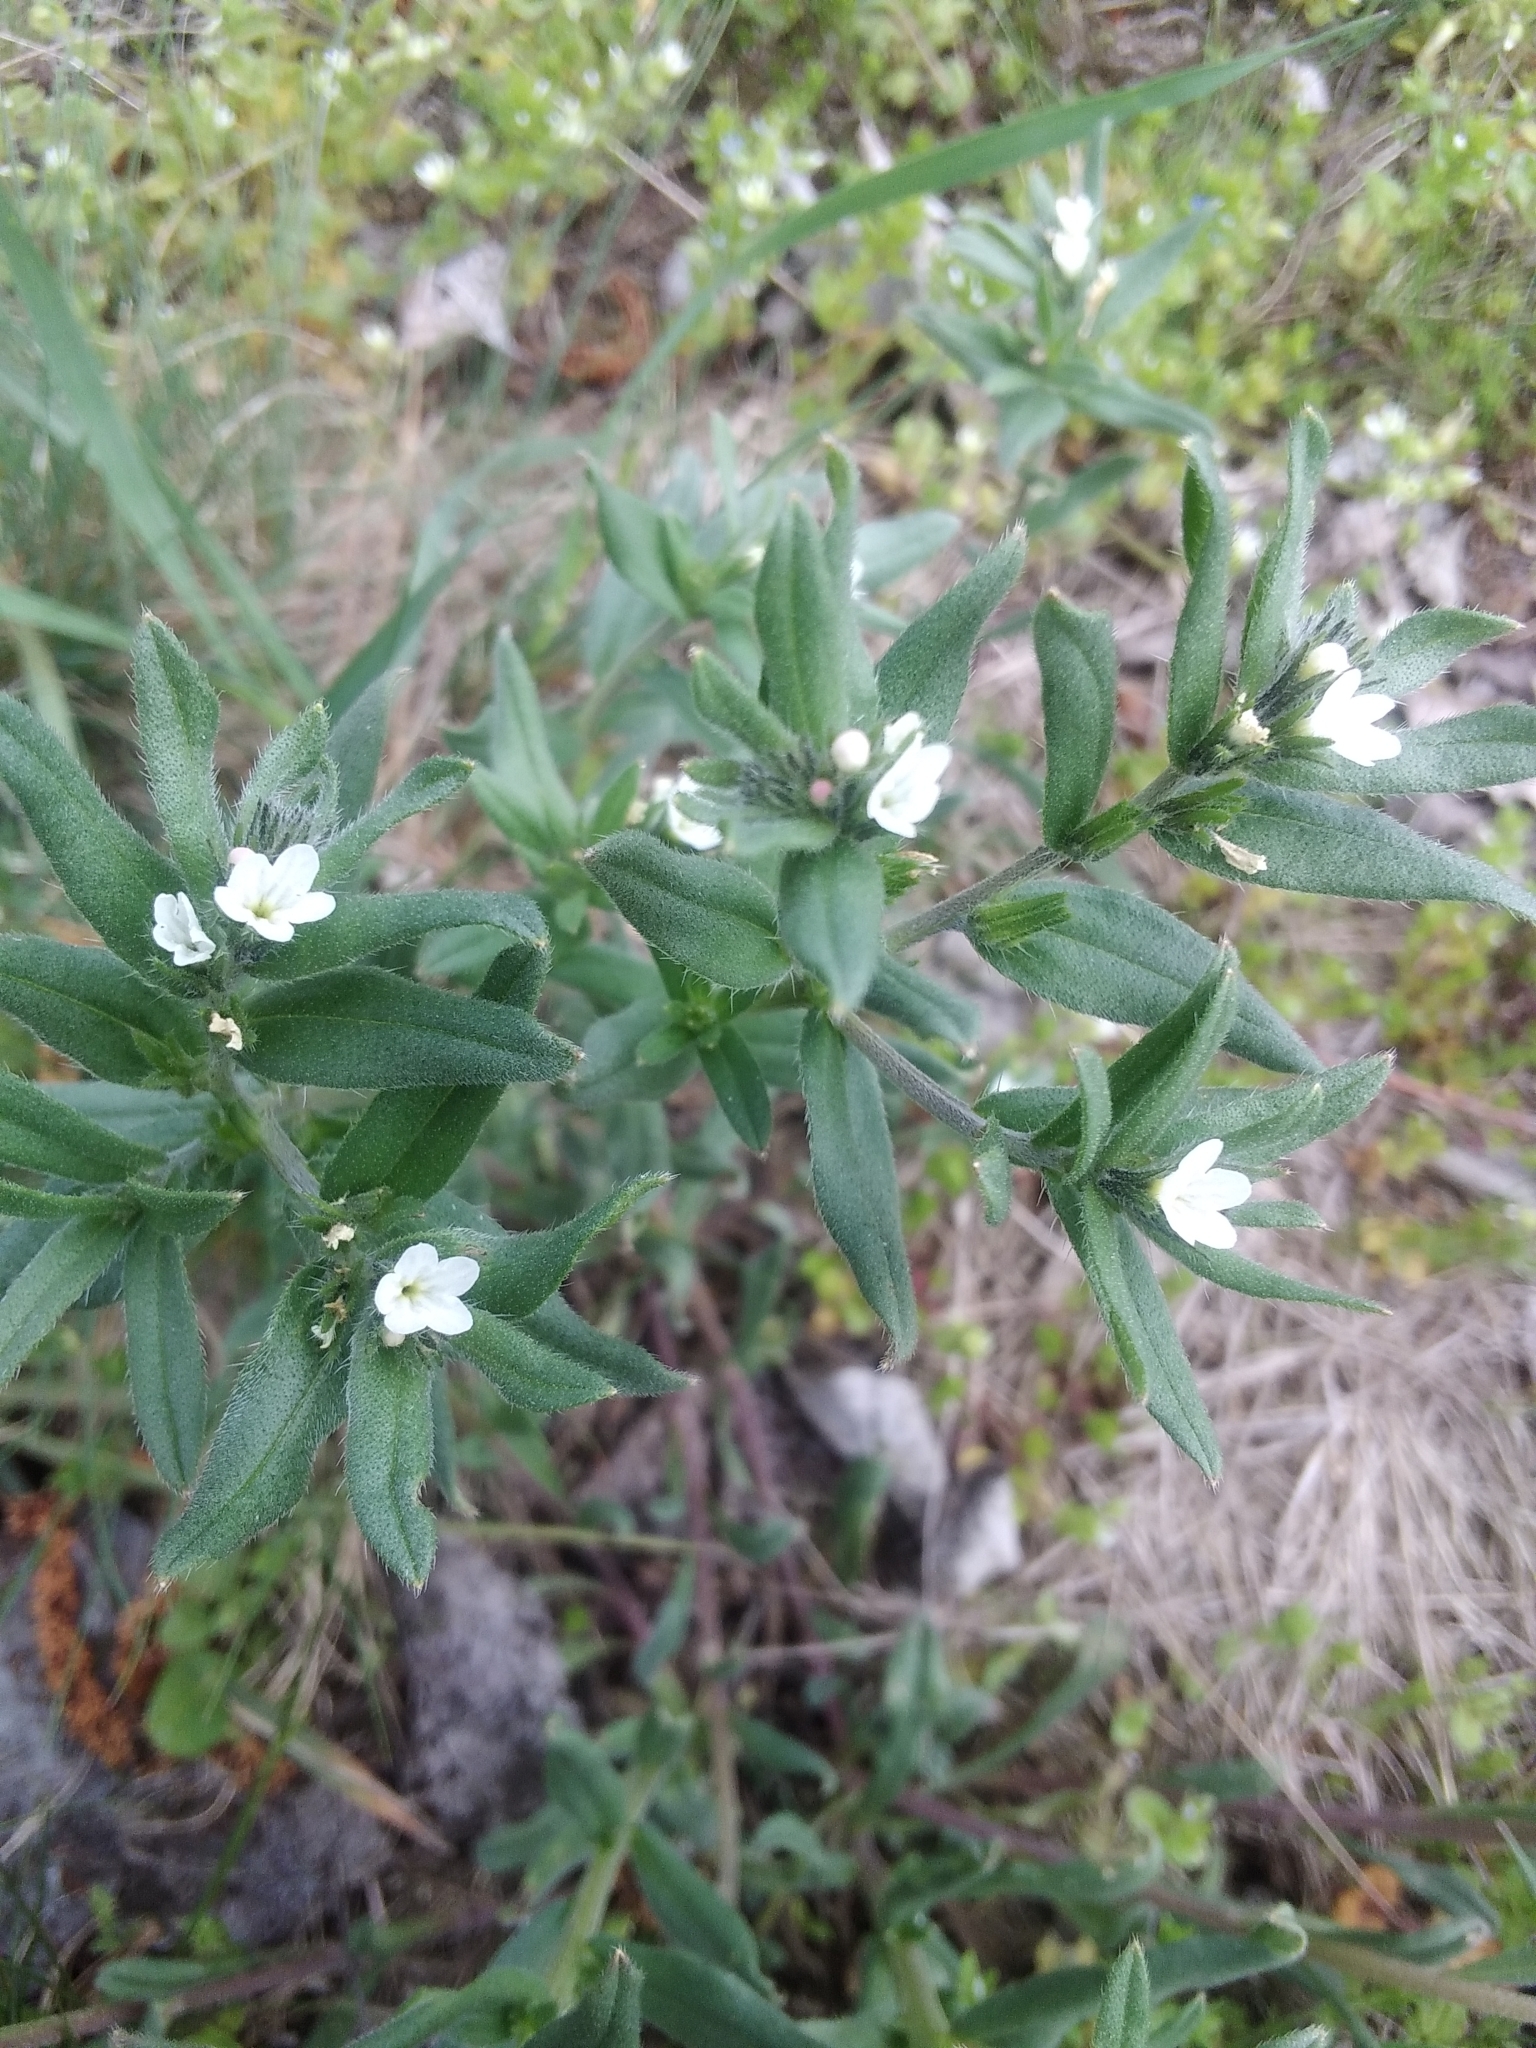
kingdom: Plantae
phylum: Tracheophyta
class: Magnoliopsida
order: Boraginales
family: Boraginaceae
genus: Buglossoides
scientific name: Buglossoides arvensis
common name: Corn gromwell
